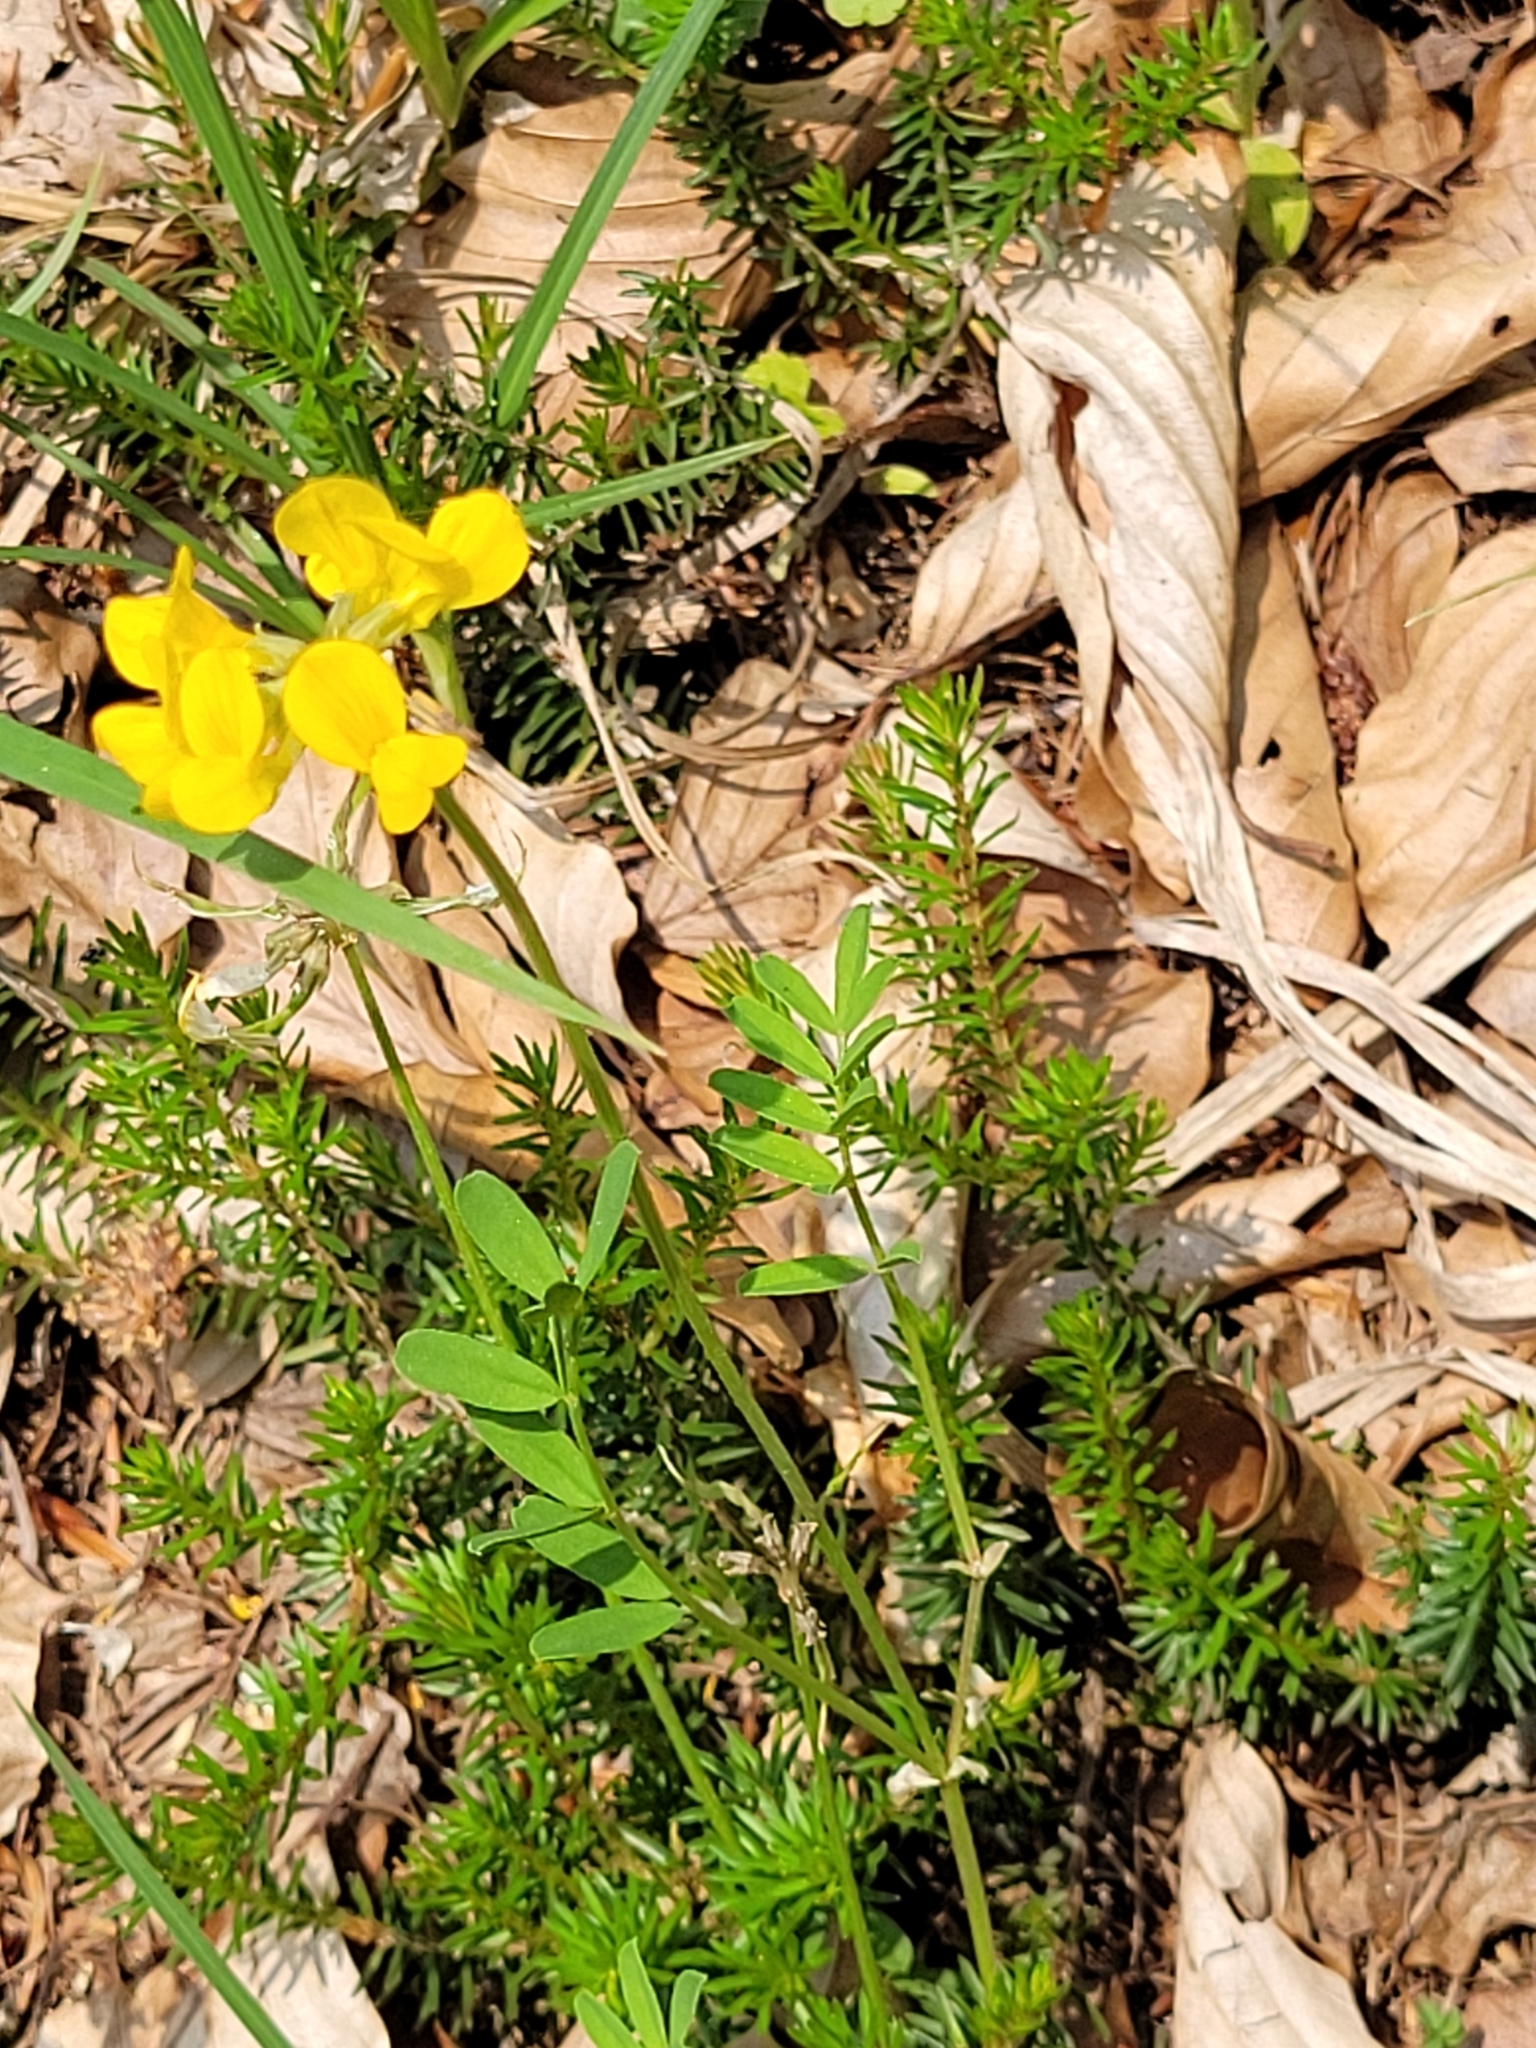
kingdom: Plantae
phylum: Tracheophyta
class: Magnoliopsida
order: Fabales
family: Fabaceae
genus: Hippocrepis
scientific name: Hippocrepis comosa
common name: Horseshoe vetch
